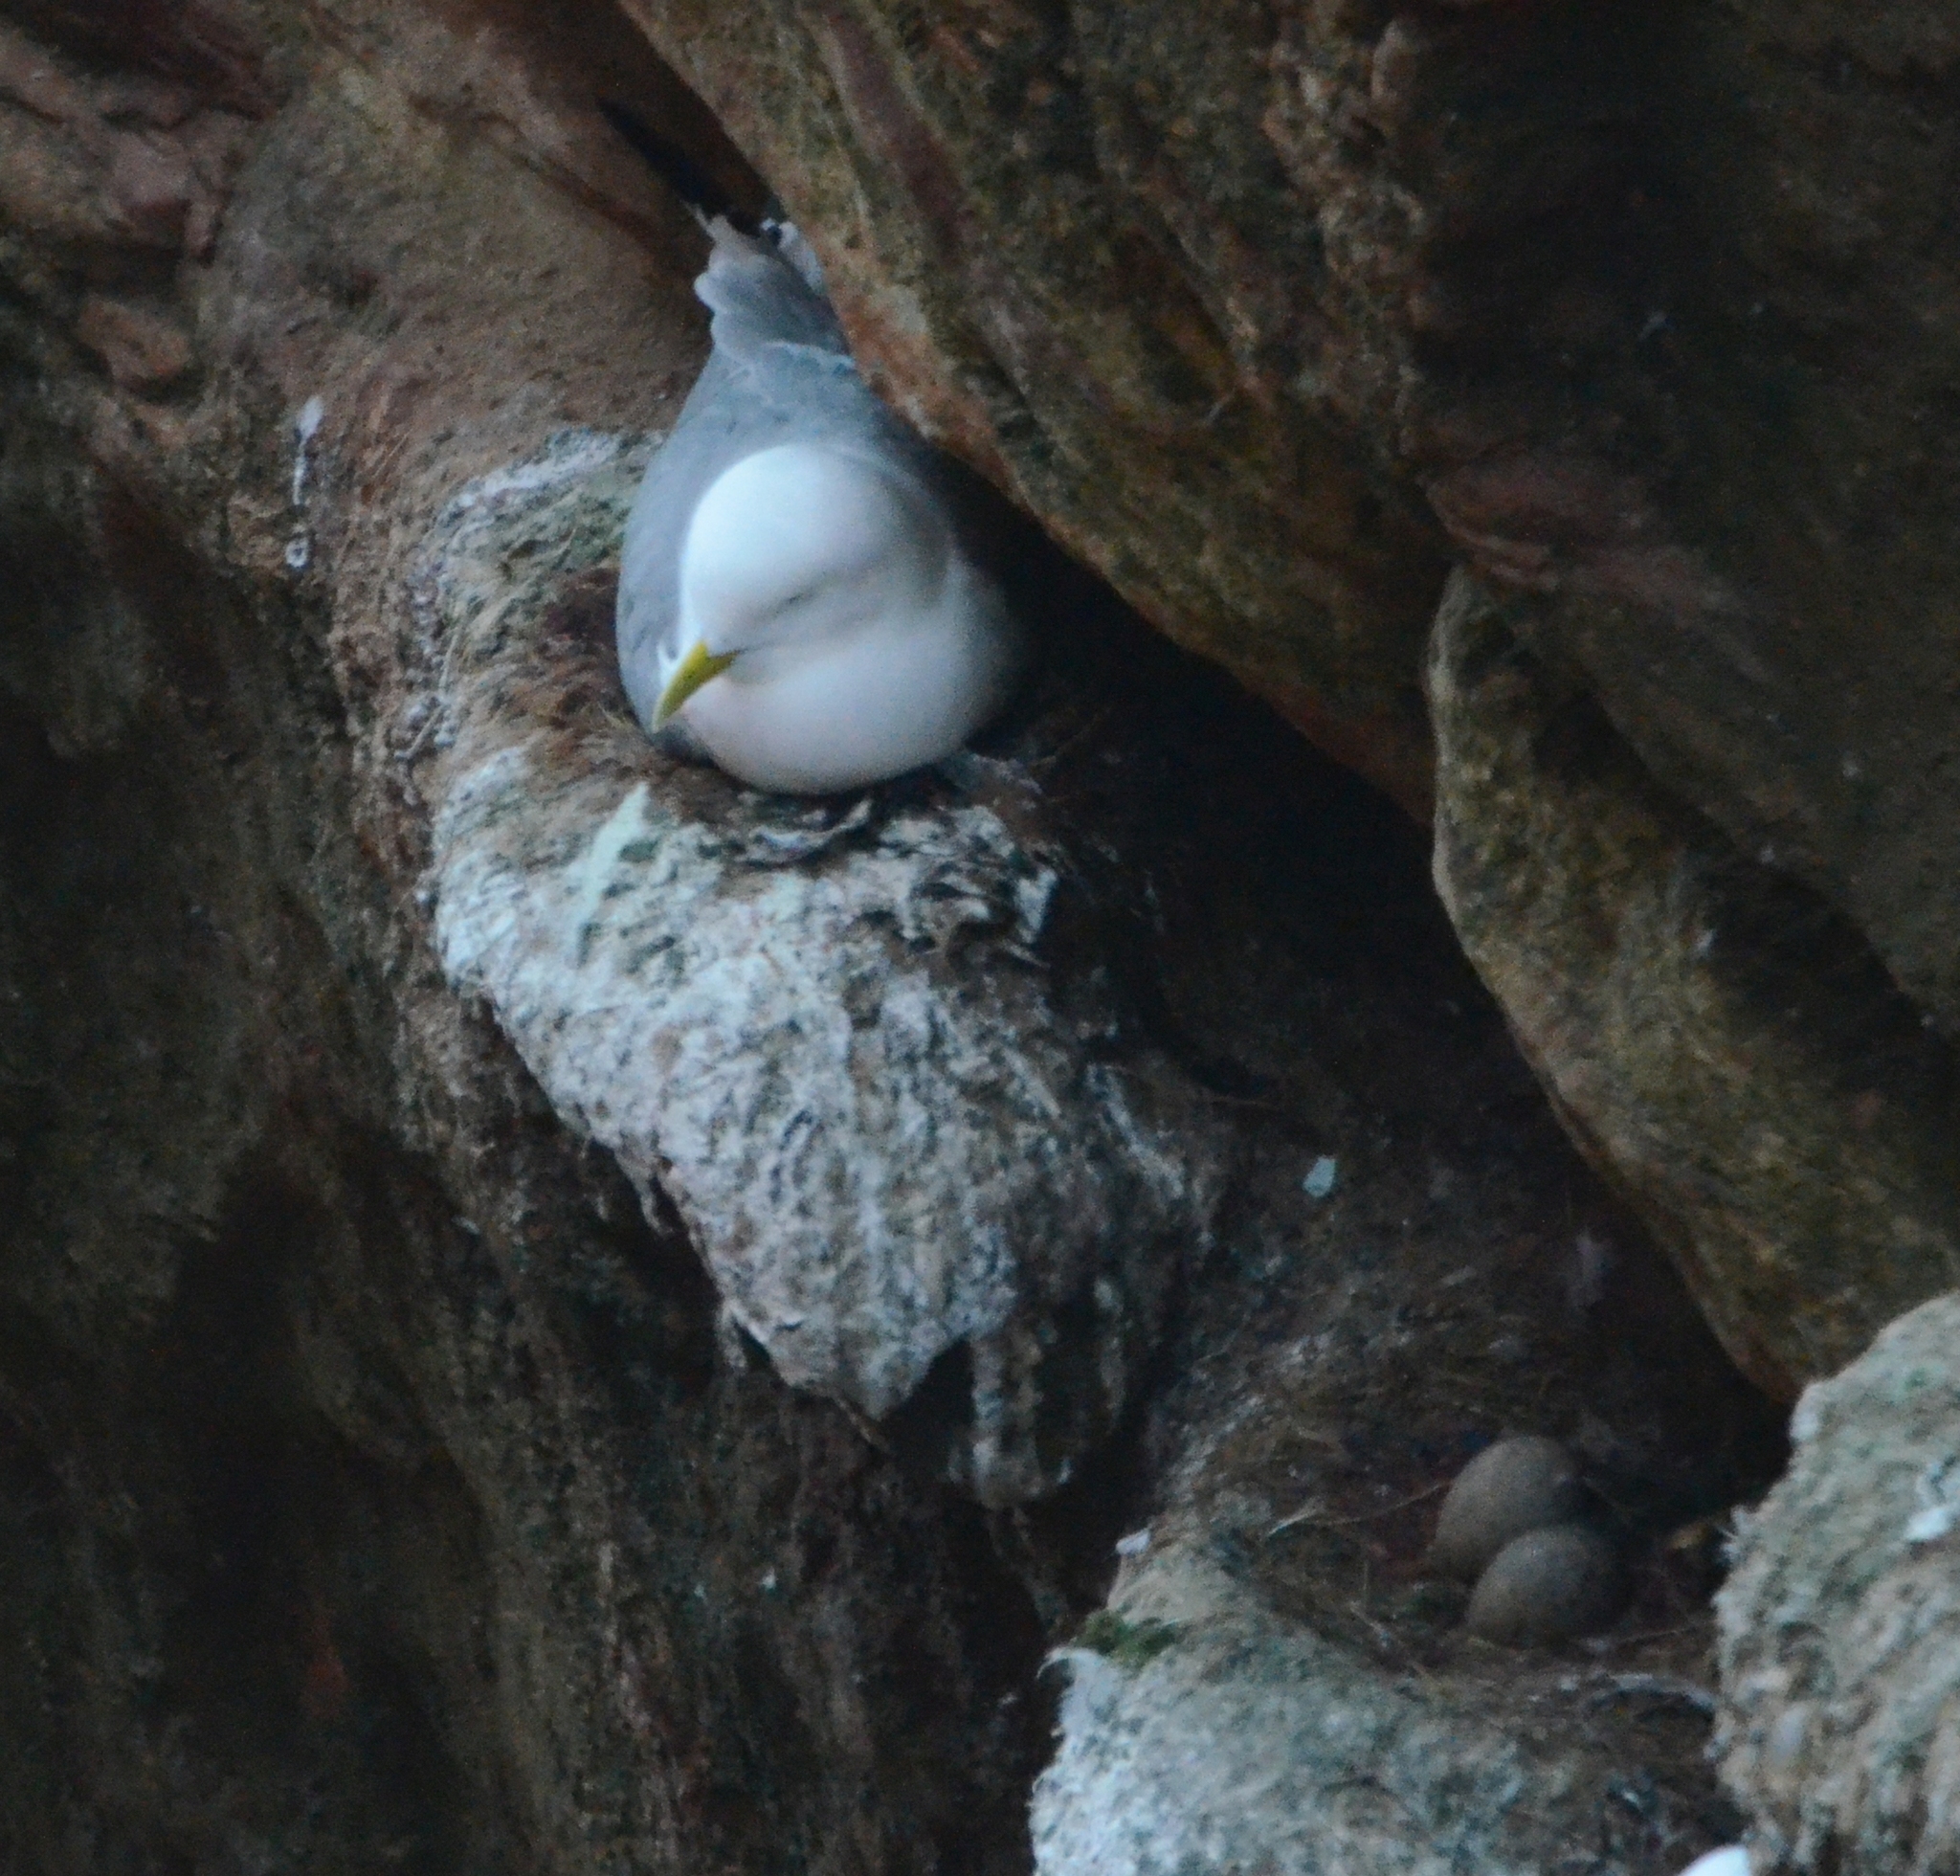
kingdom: Animalia
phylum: Chordata
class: Aves
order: Charadriiformes
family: Laridae
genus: Rissa
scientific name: Rissa tridactyla
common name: Black-legged kittiwake
